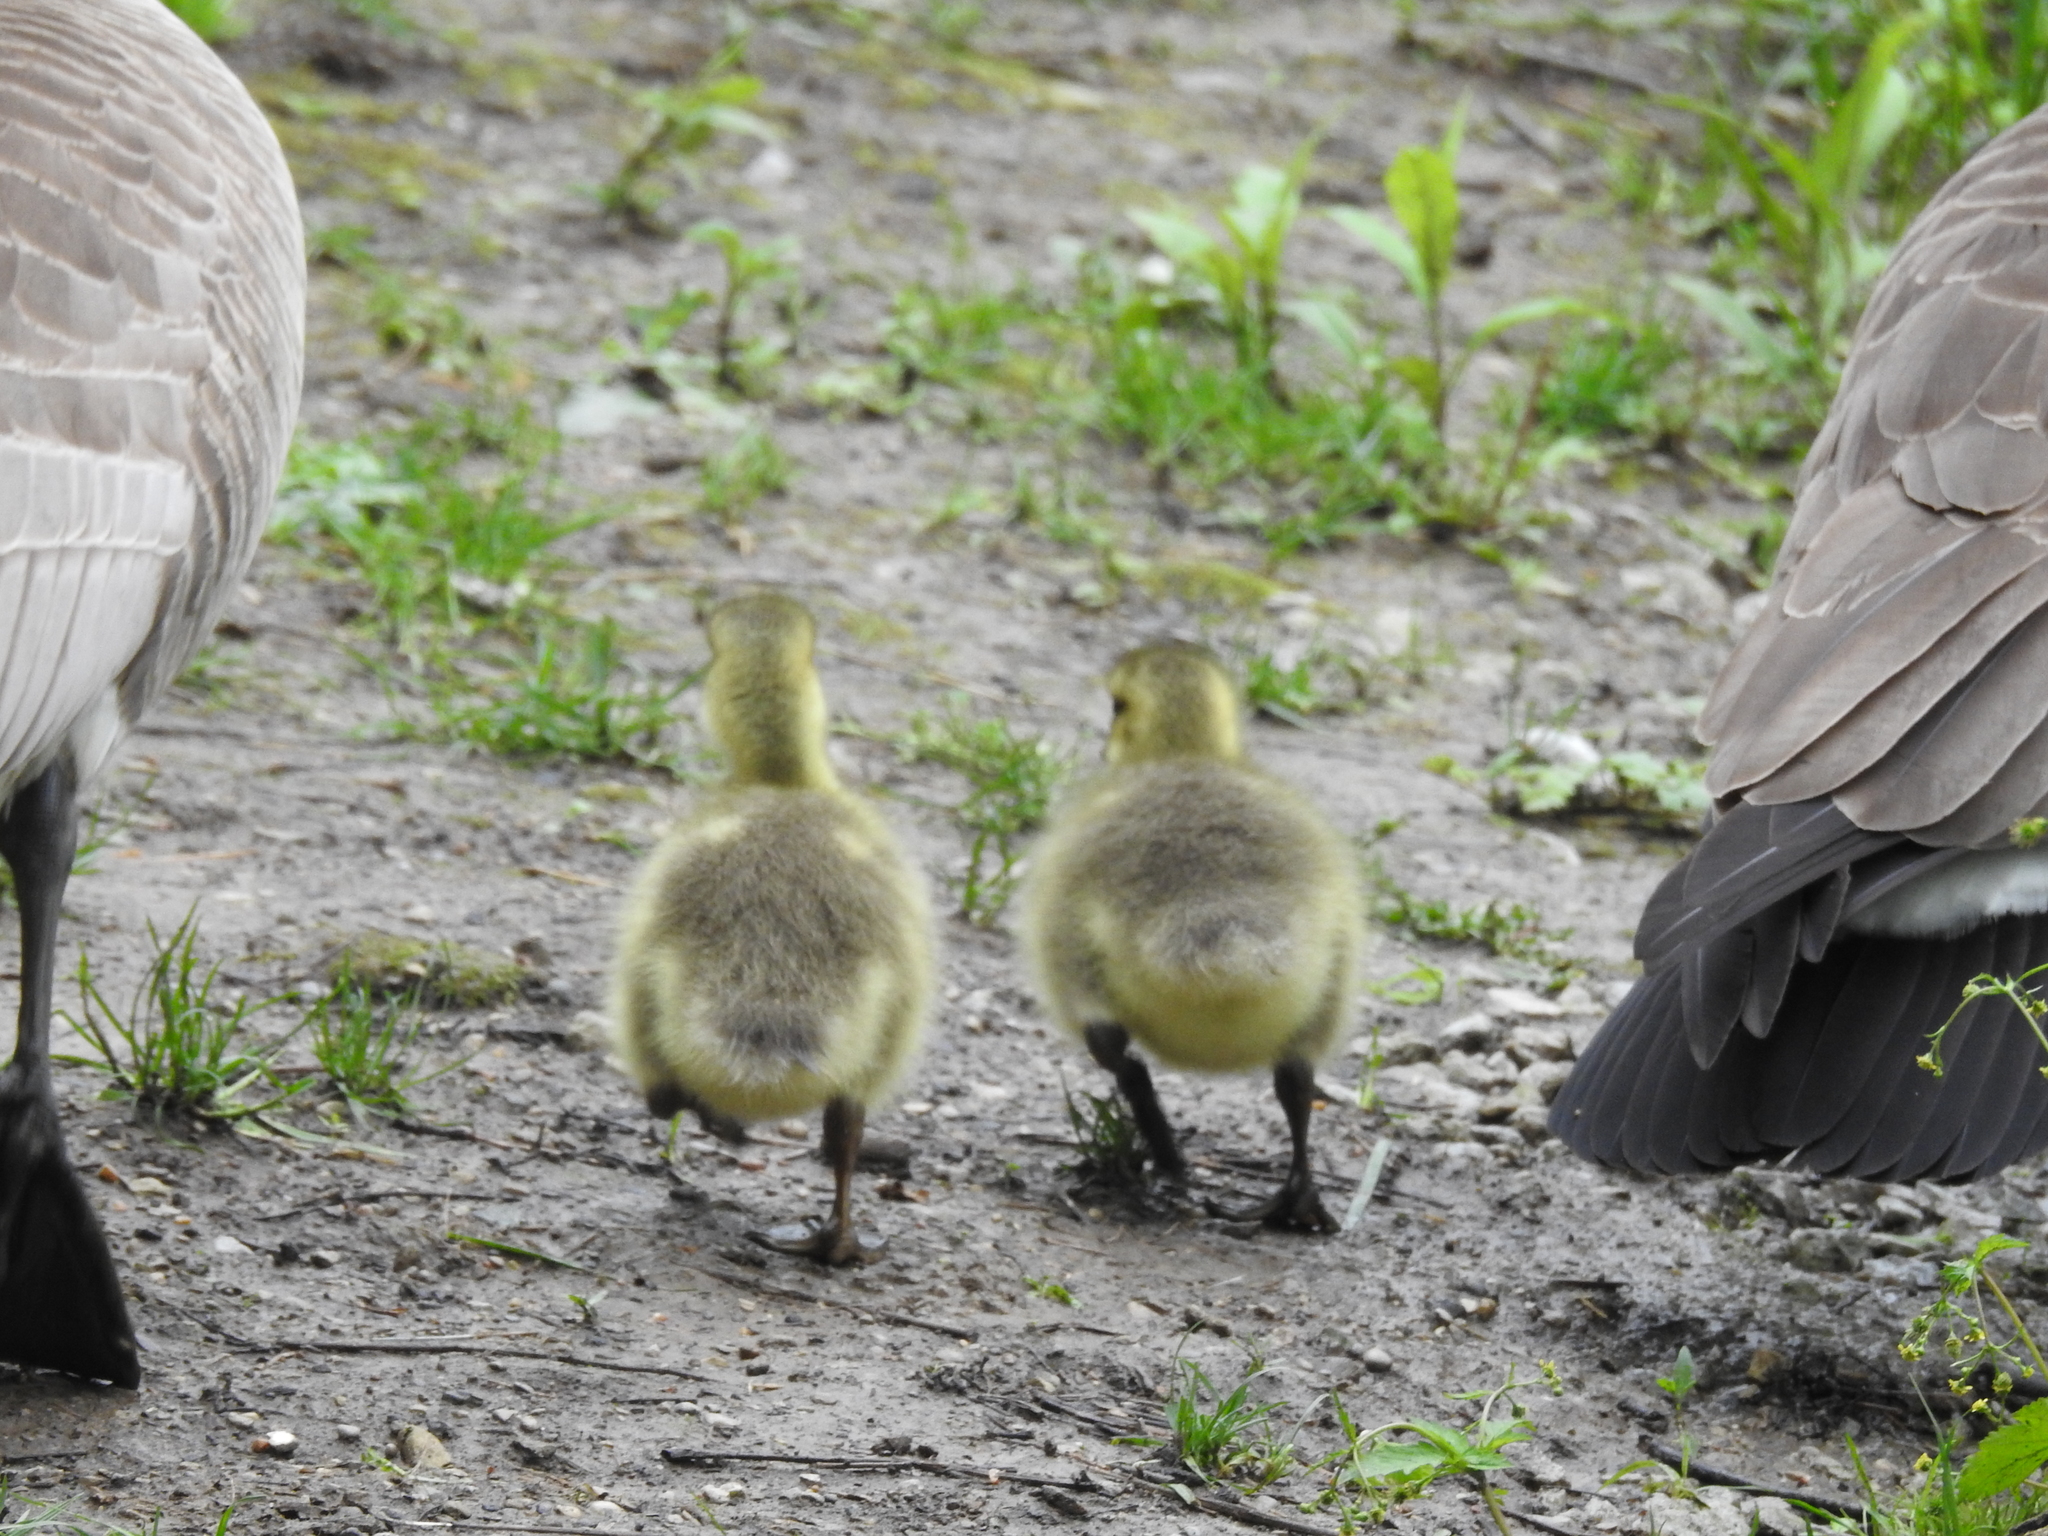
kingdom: Animalia
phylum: Chordata
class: Aves
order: Anseriformes
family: Anatidae
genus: Branta
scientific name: Branta canadensis
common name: Canada goose
